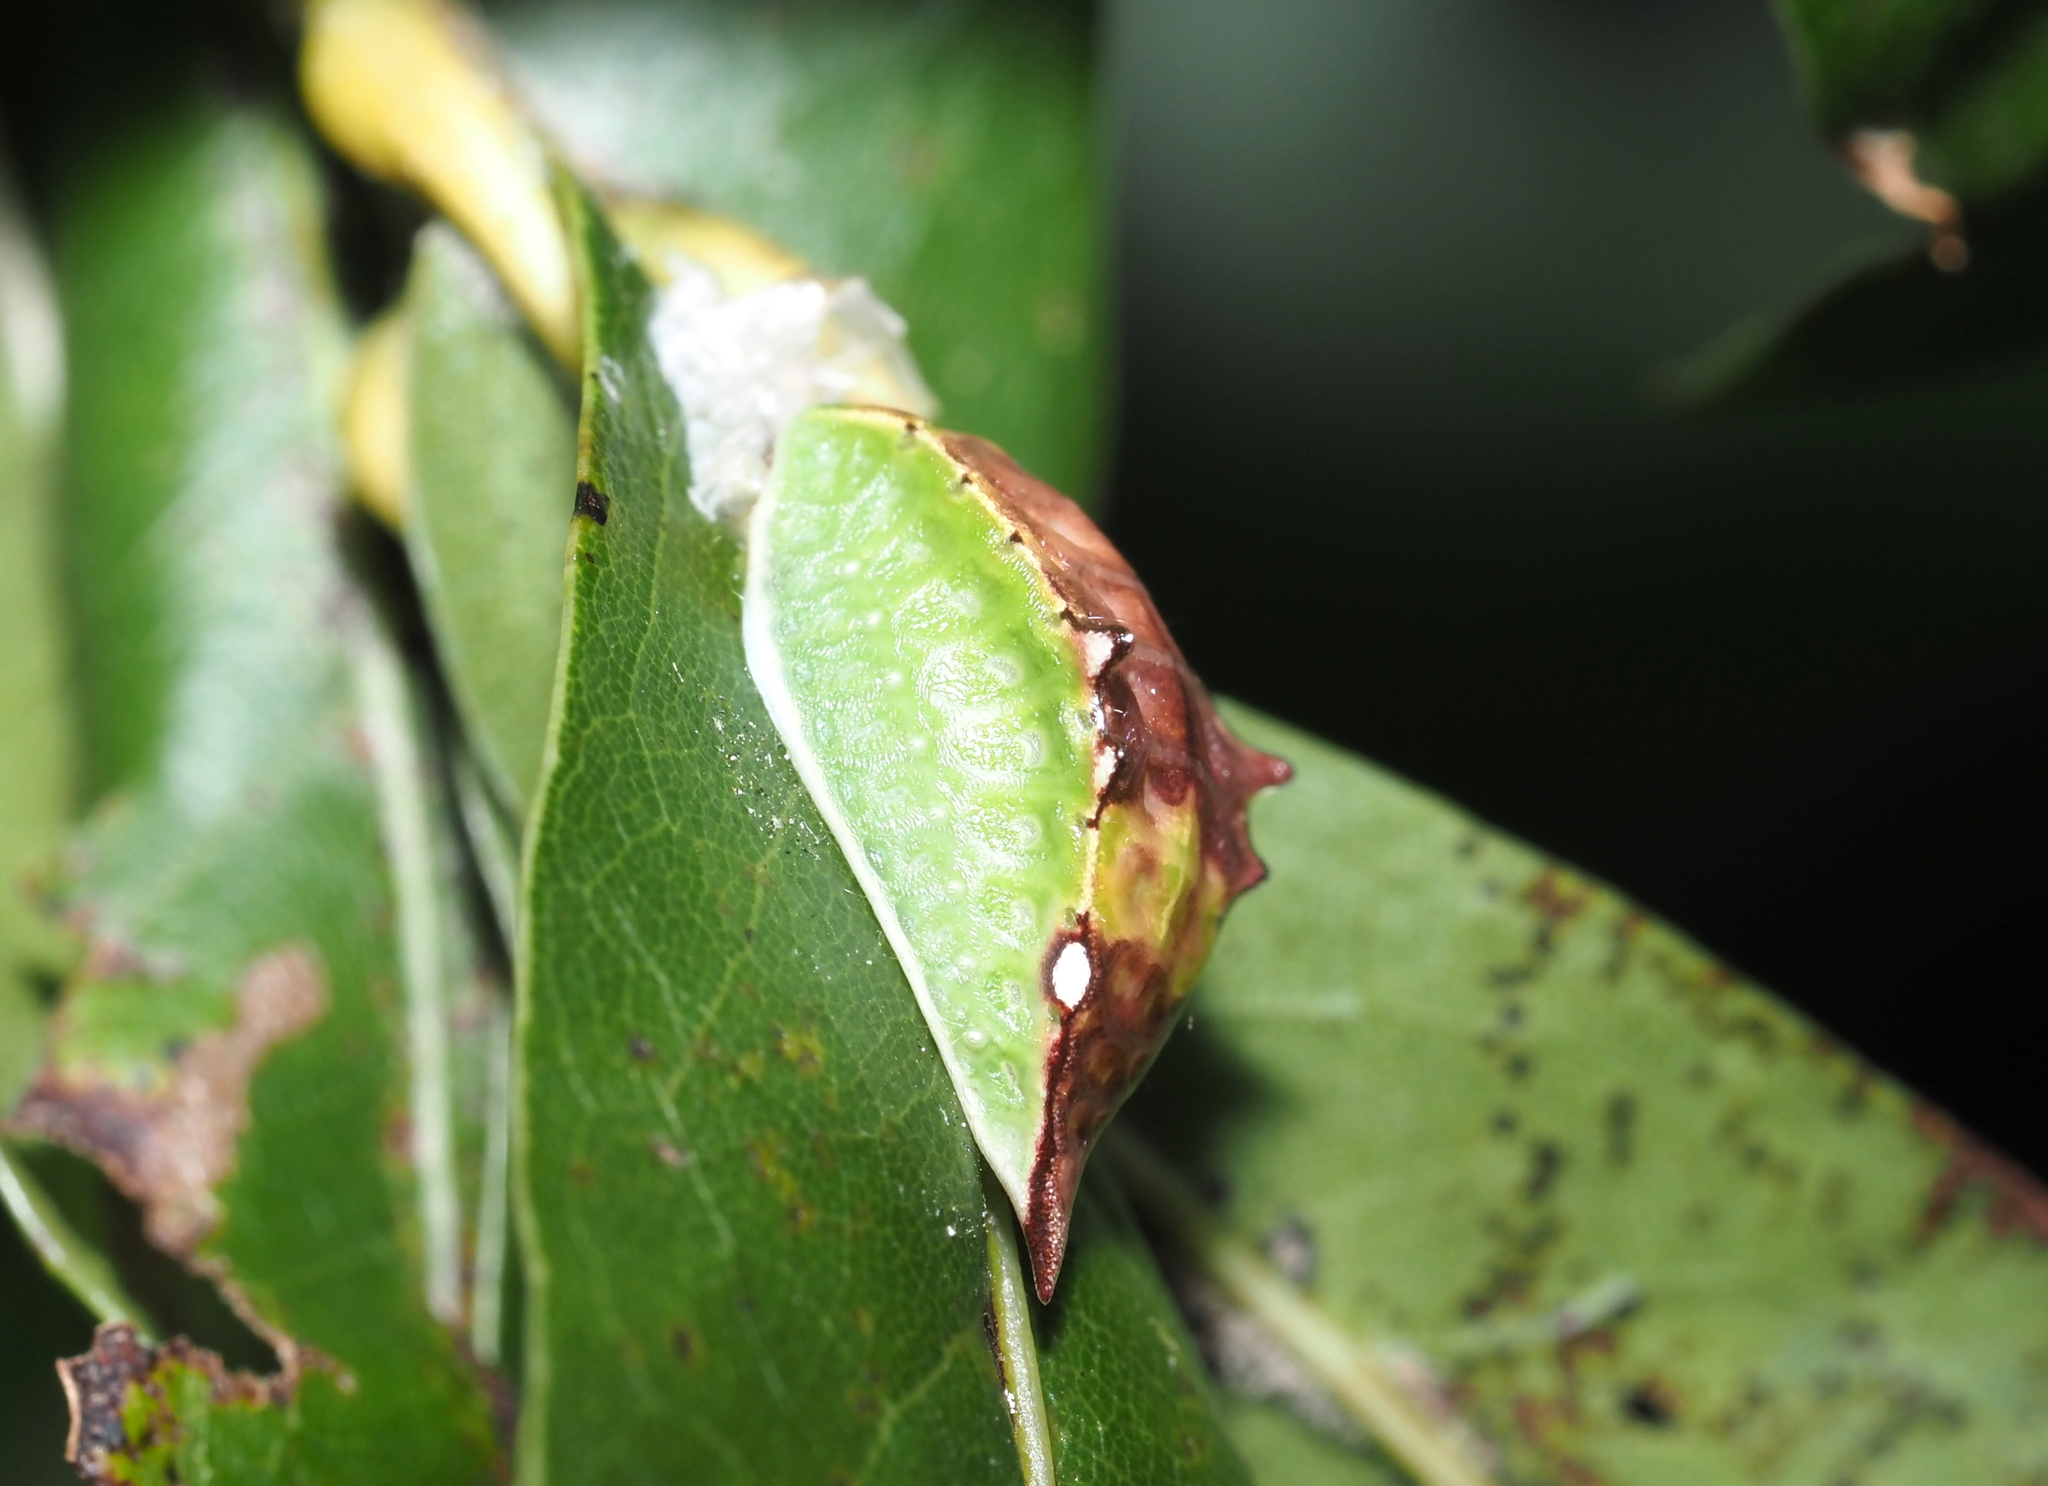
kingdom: Animalia
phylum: Arthropoda
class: Insecta
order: Lepidoptera
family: Limacodidae
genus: Prolimacodes
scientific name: Prolimacodes badia
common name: Skiff moth
